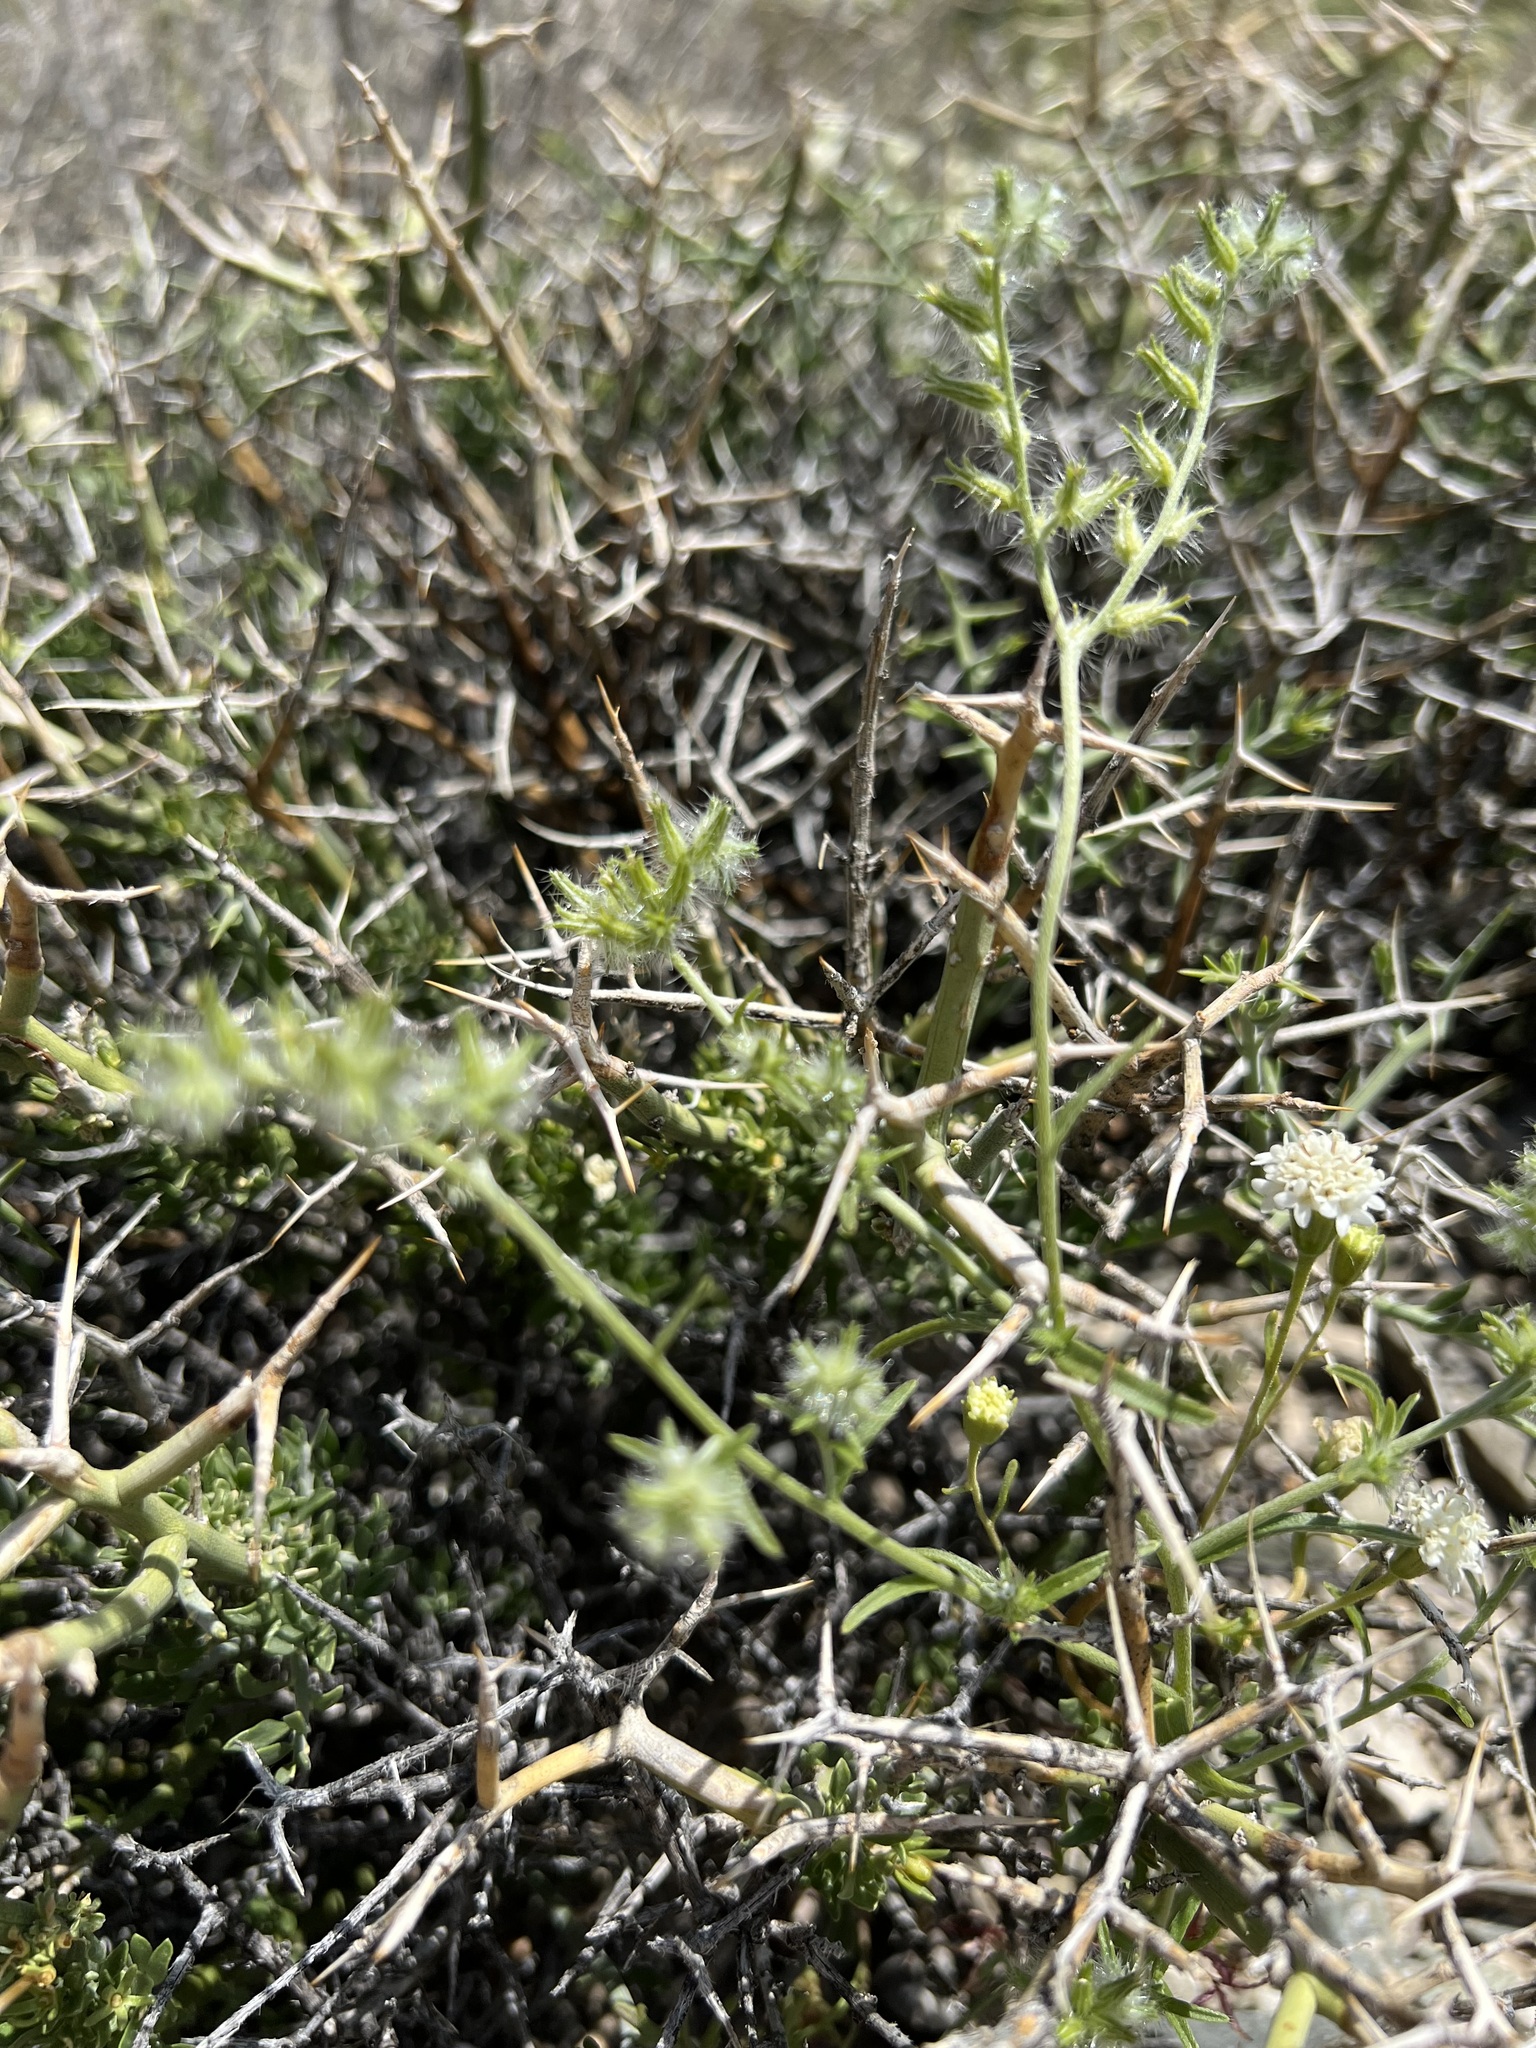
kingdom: Plantae
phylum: Tracheophyta
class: Magnoliopsida
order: Boraginales
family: Boraginaceae
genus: Cryptantha
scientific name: Cryptantha nevadensis
